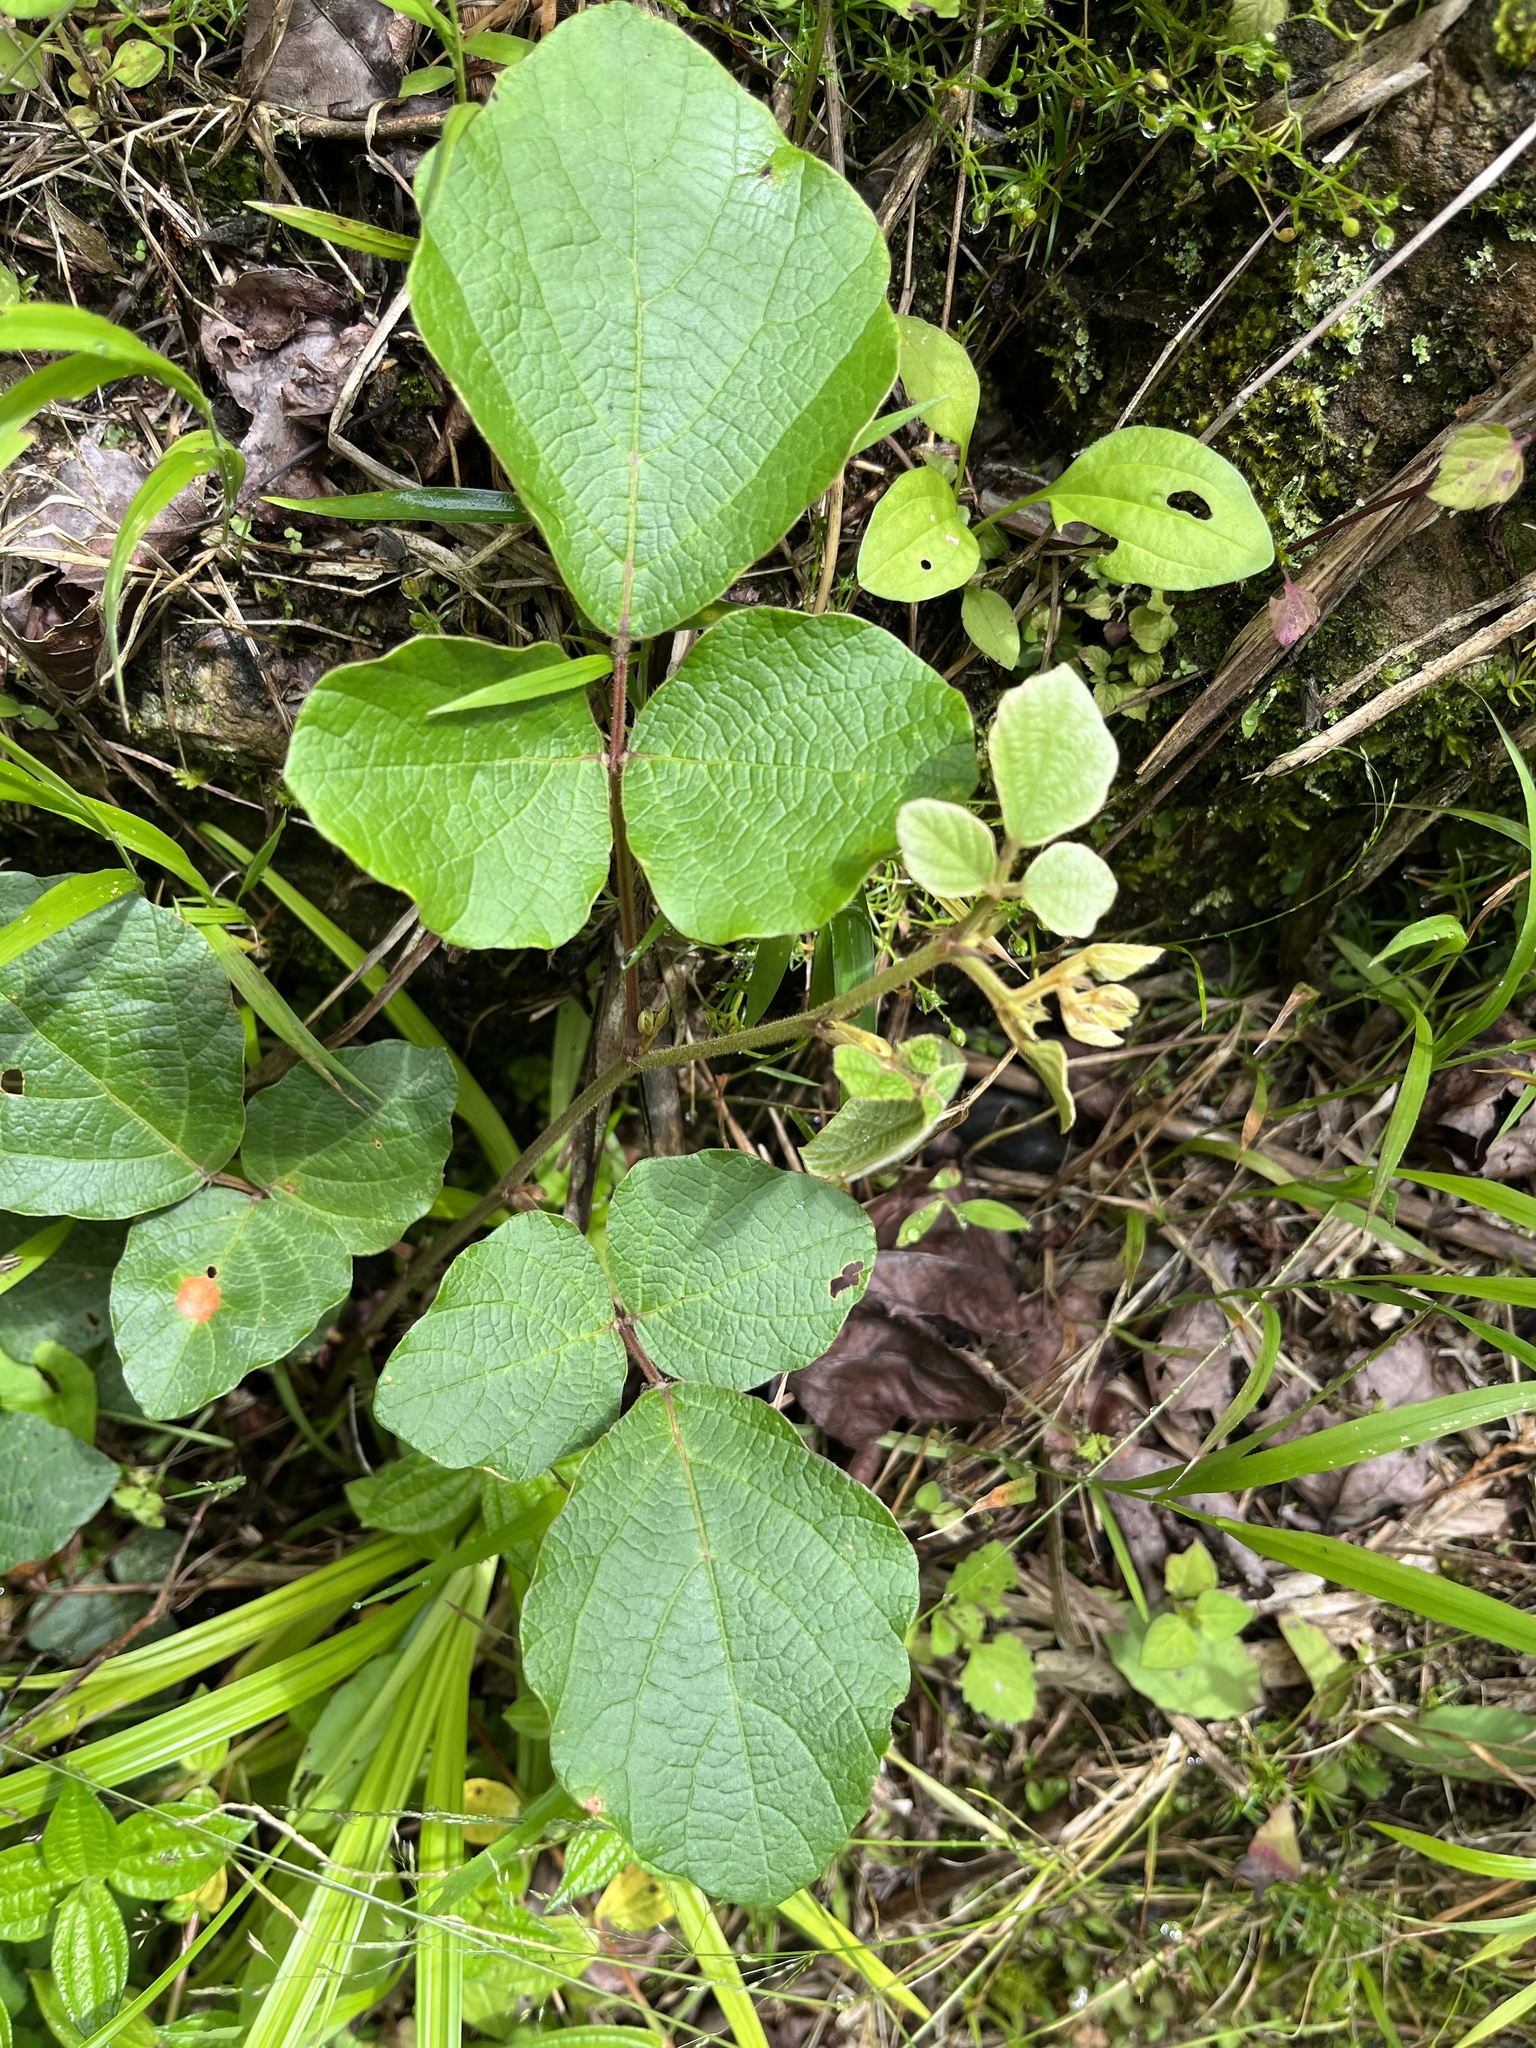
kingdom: Plantae
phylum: Tracheophyta
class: Magnoliopsida
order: Fabales
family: Fabaceae
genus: Puhuaea
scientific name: Puhuaea sequax
